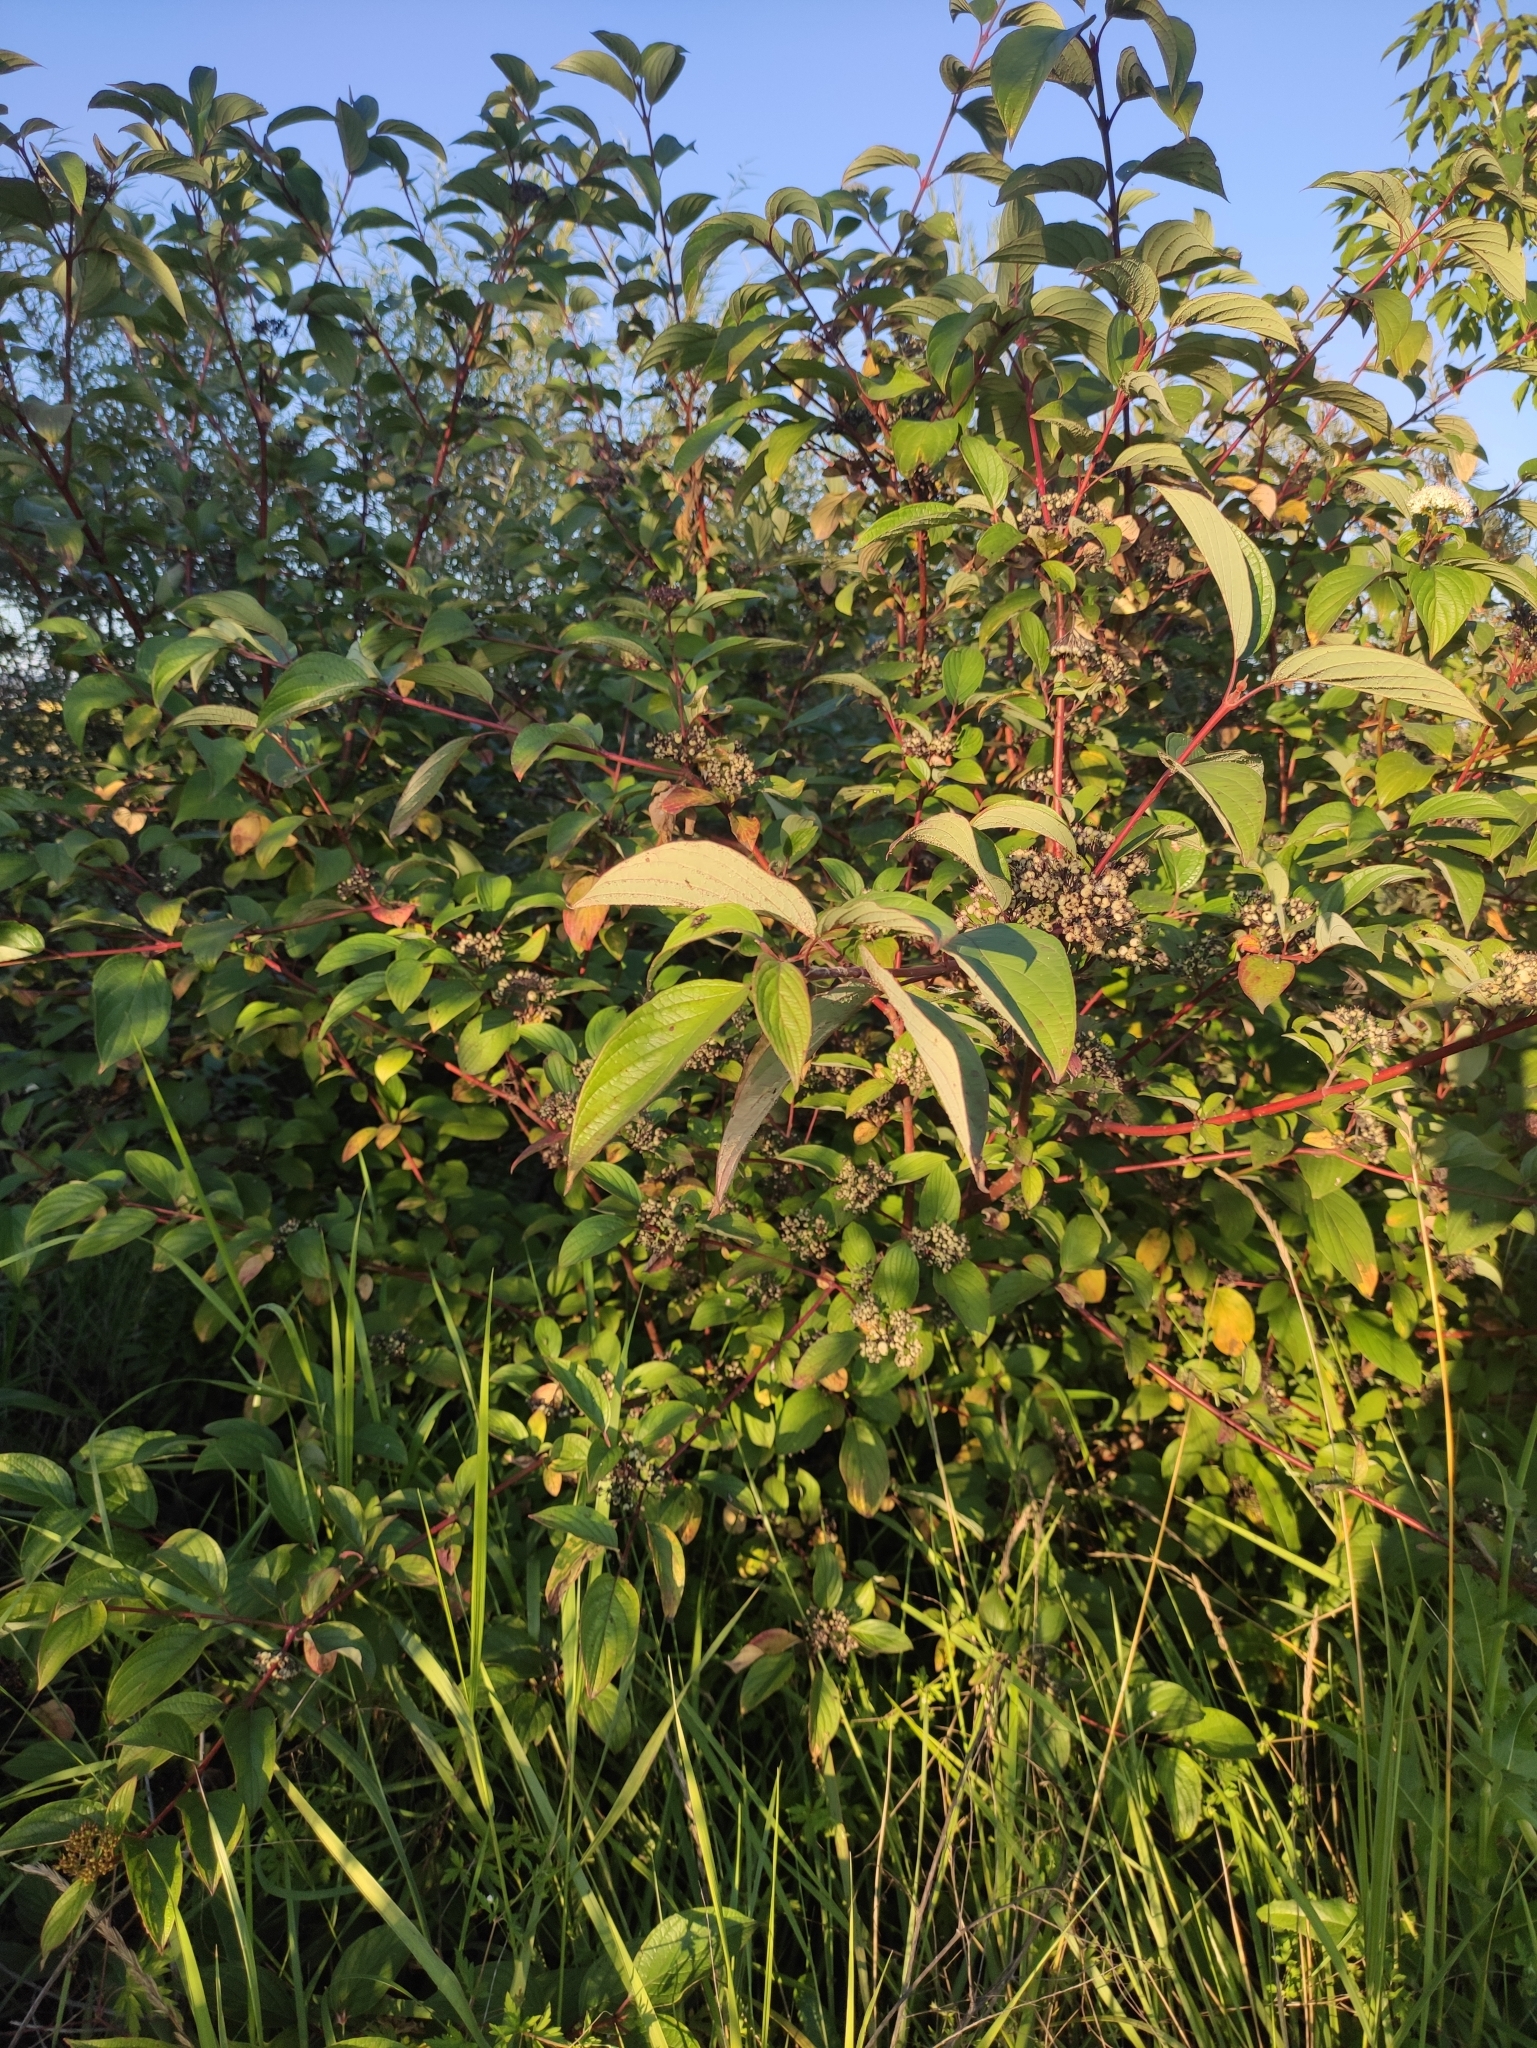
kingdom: Plantae
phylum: Tracheophyta
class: Magnoliopsida
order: Cornales
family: Cornaceae
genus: Cornus
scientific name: Cornus alba
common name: White dogwood
